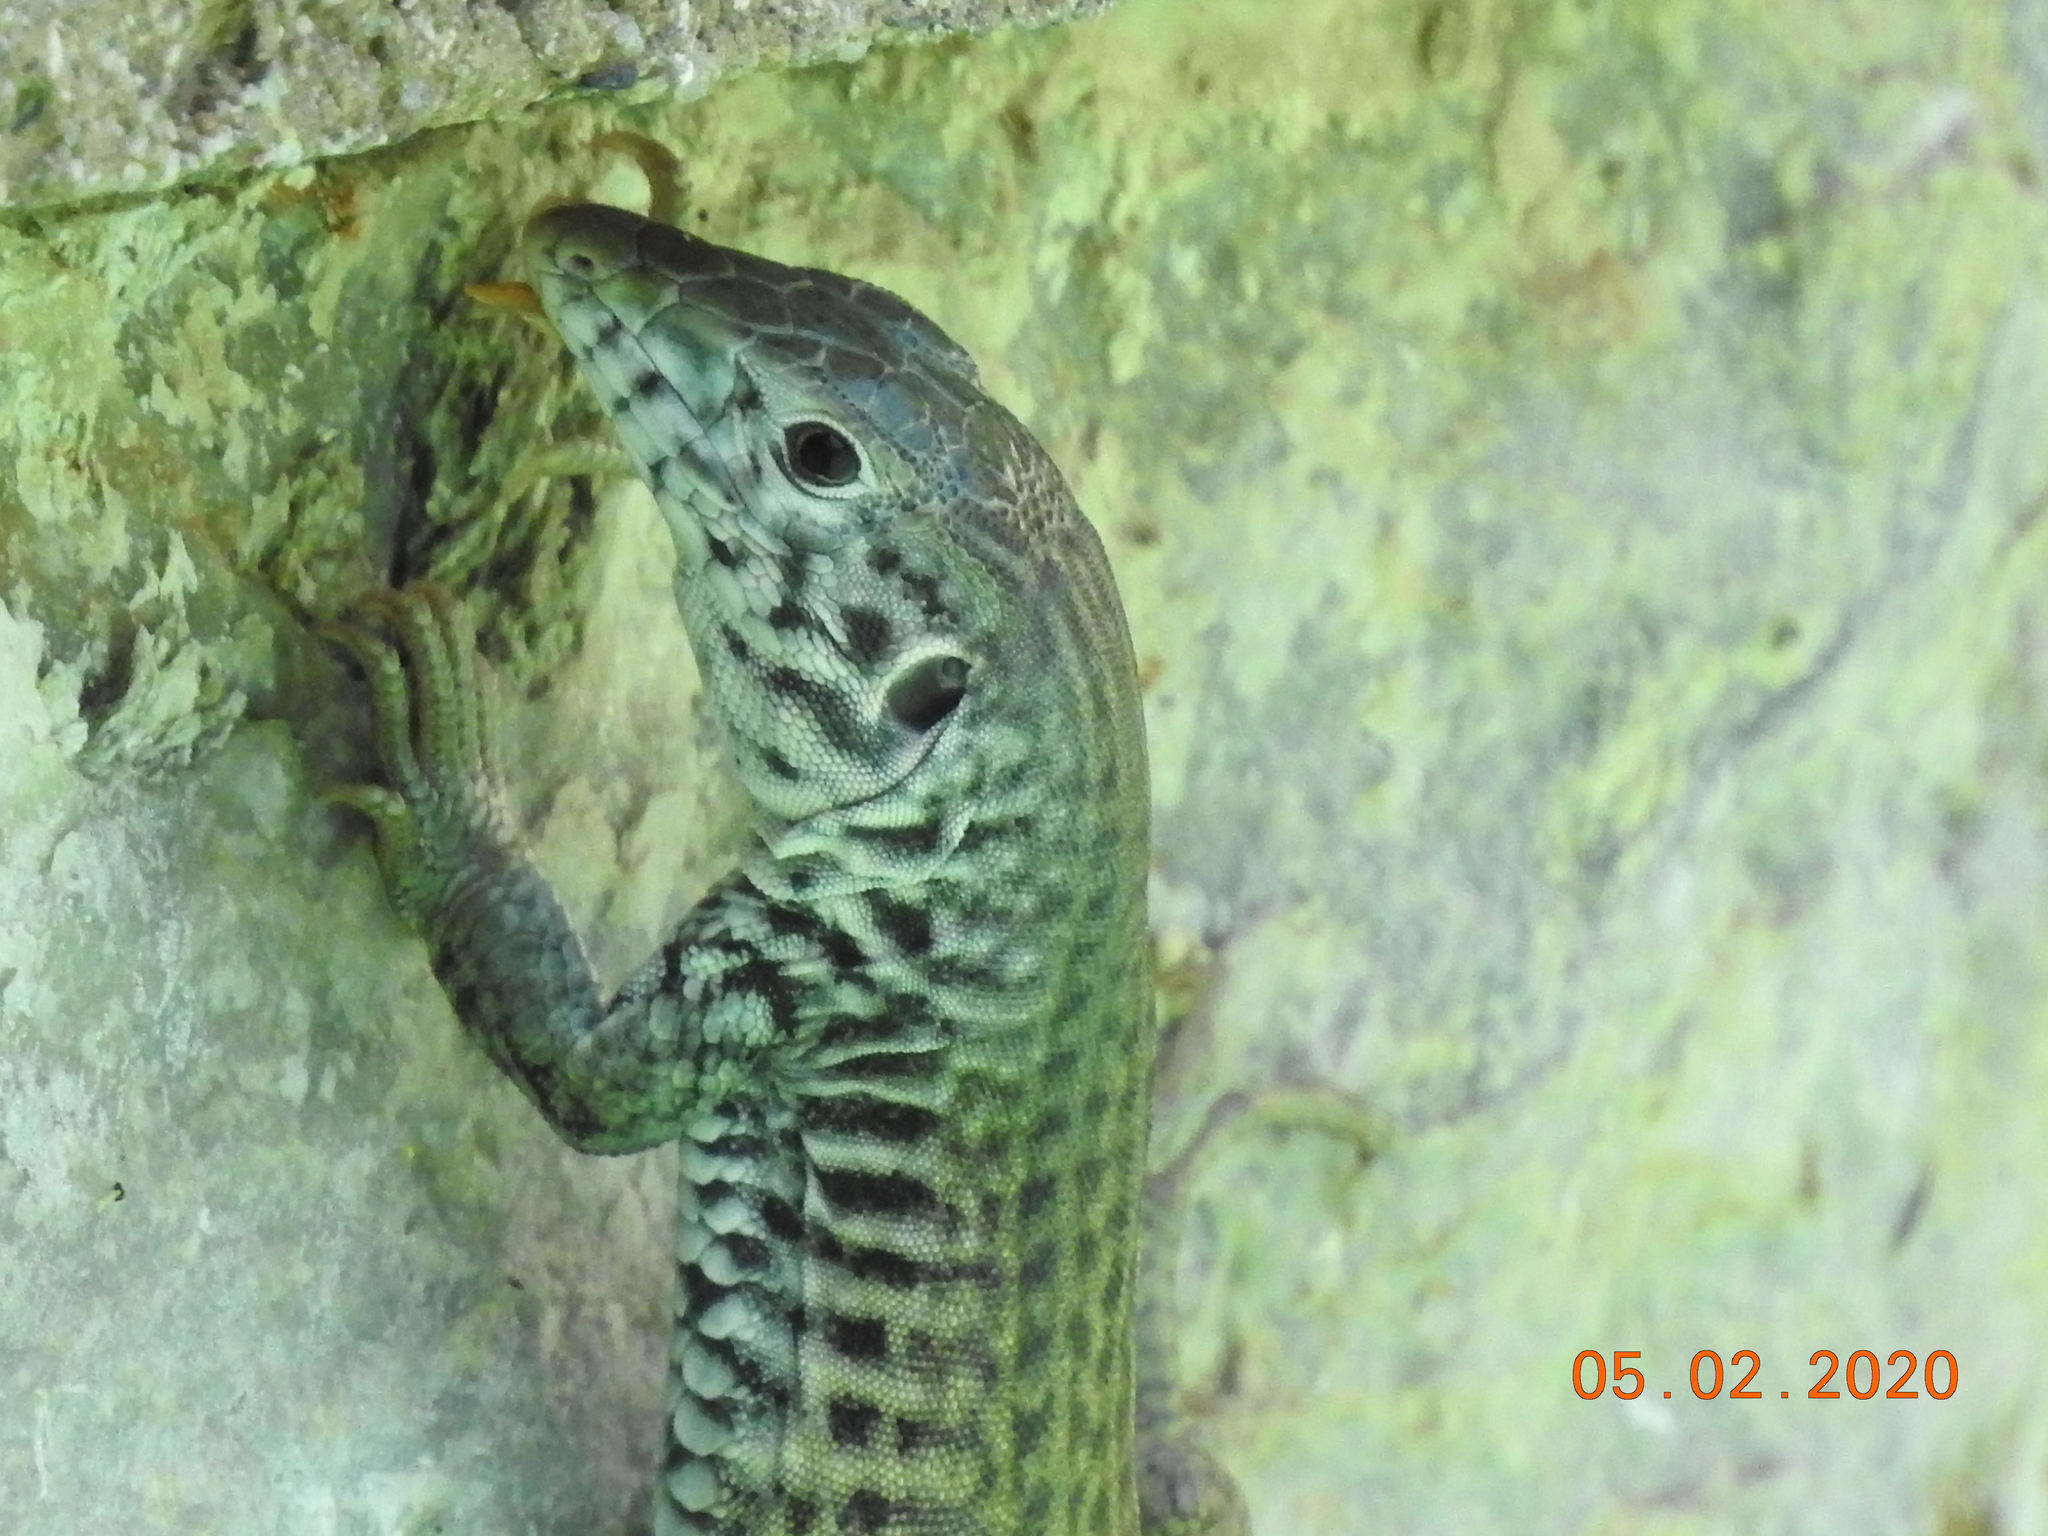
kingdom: Animalia
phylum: Chordata
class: Squamata
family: Teiidae
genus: Aspidoscelis
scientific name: Aspidoscelis tigris
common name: Tiger whiptail
